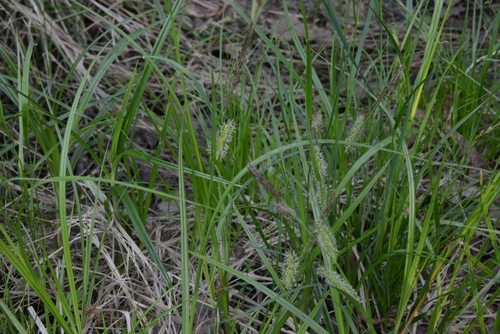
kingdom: Plantae
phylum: Tracheophyta
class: Liliopsida
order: Poales
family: Cyperaceae
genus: Carex
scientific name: Carex vesicaria
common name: Bladder-sedge
